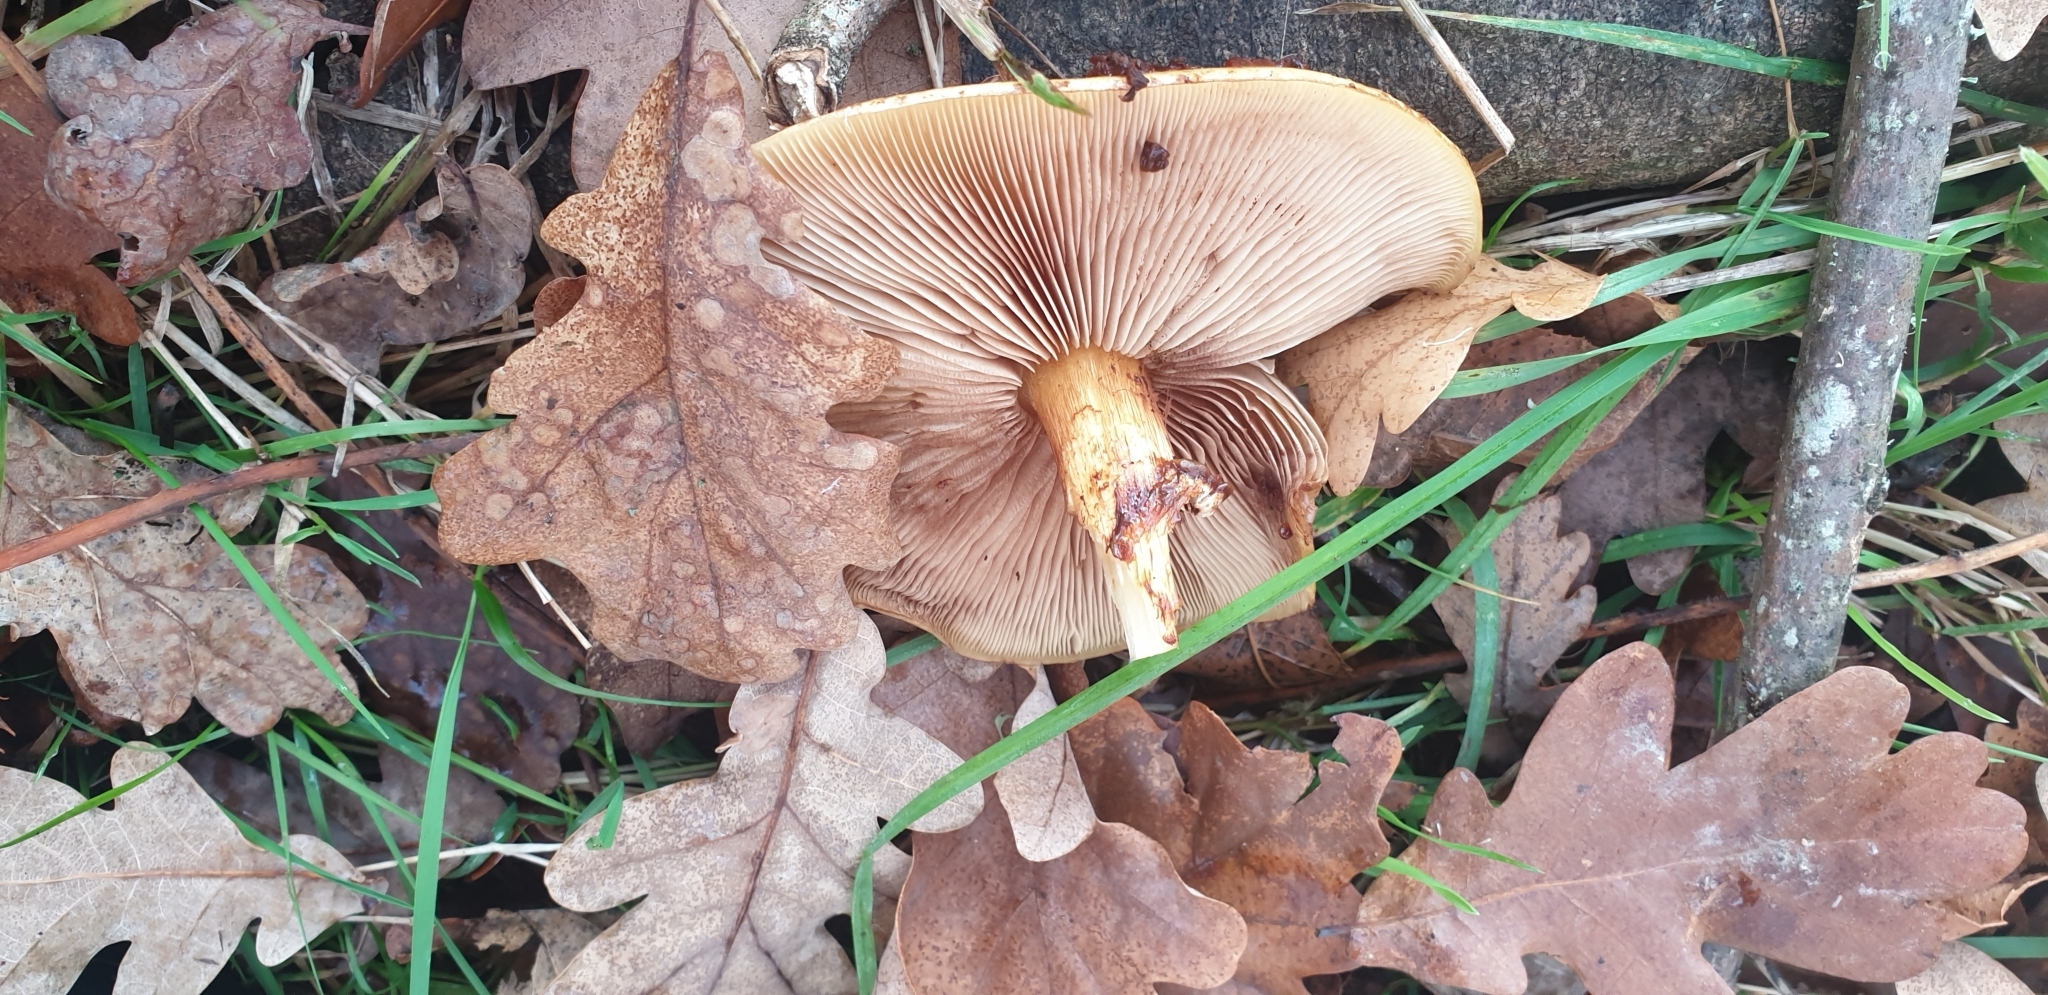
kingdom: Fungi
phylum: Basidiomycota
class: Agaricomycetes
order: Agaricales
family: Strophariaceae
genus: Pholiota
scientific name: Pholiota glutinosa
